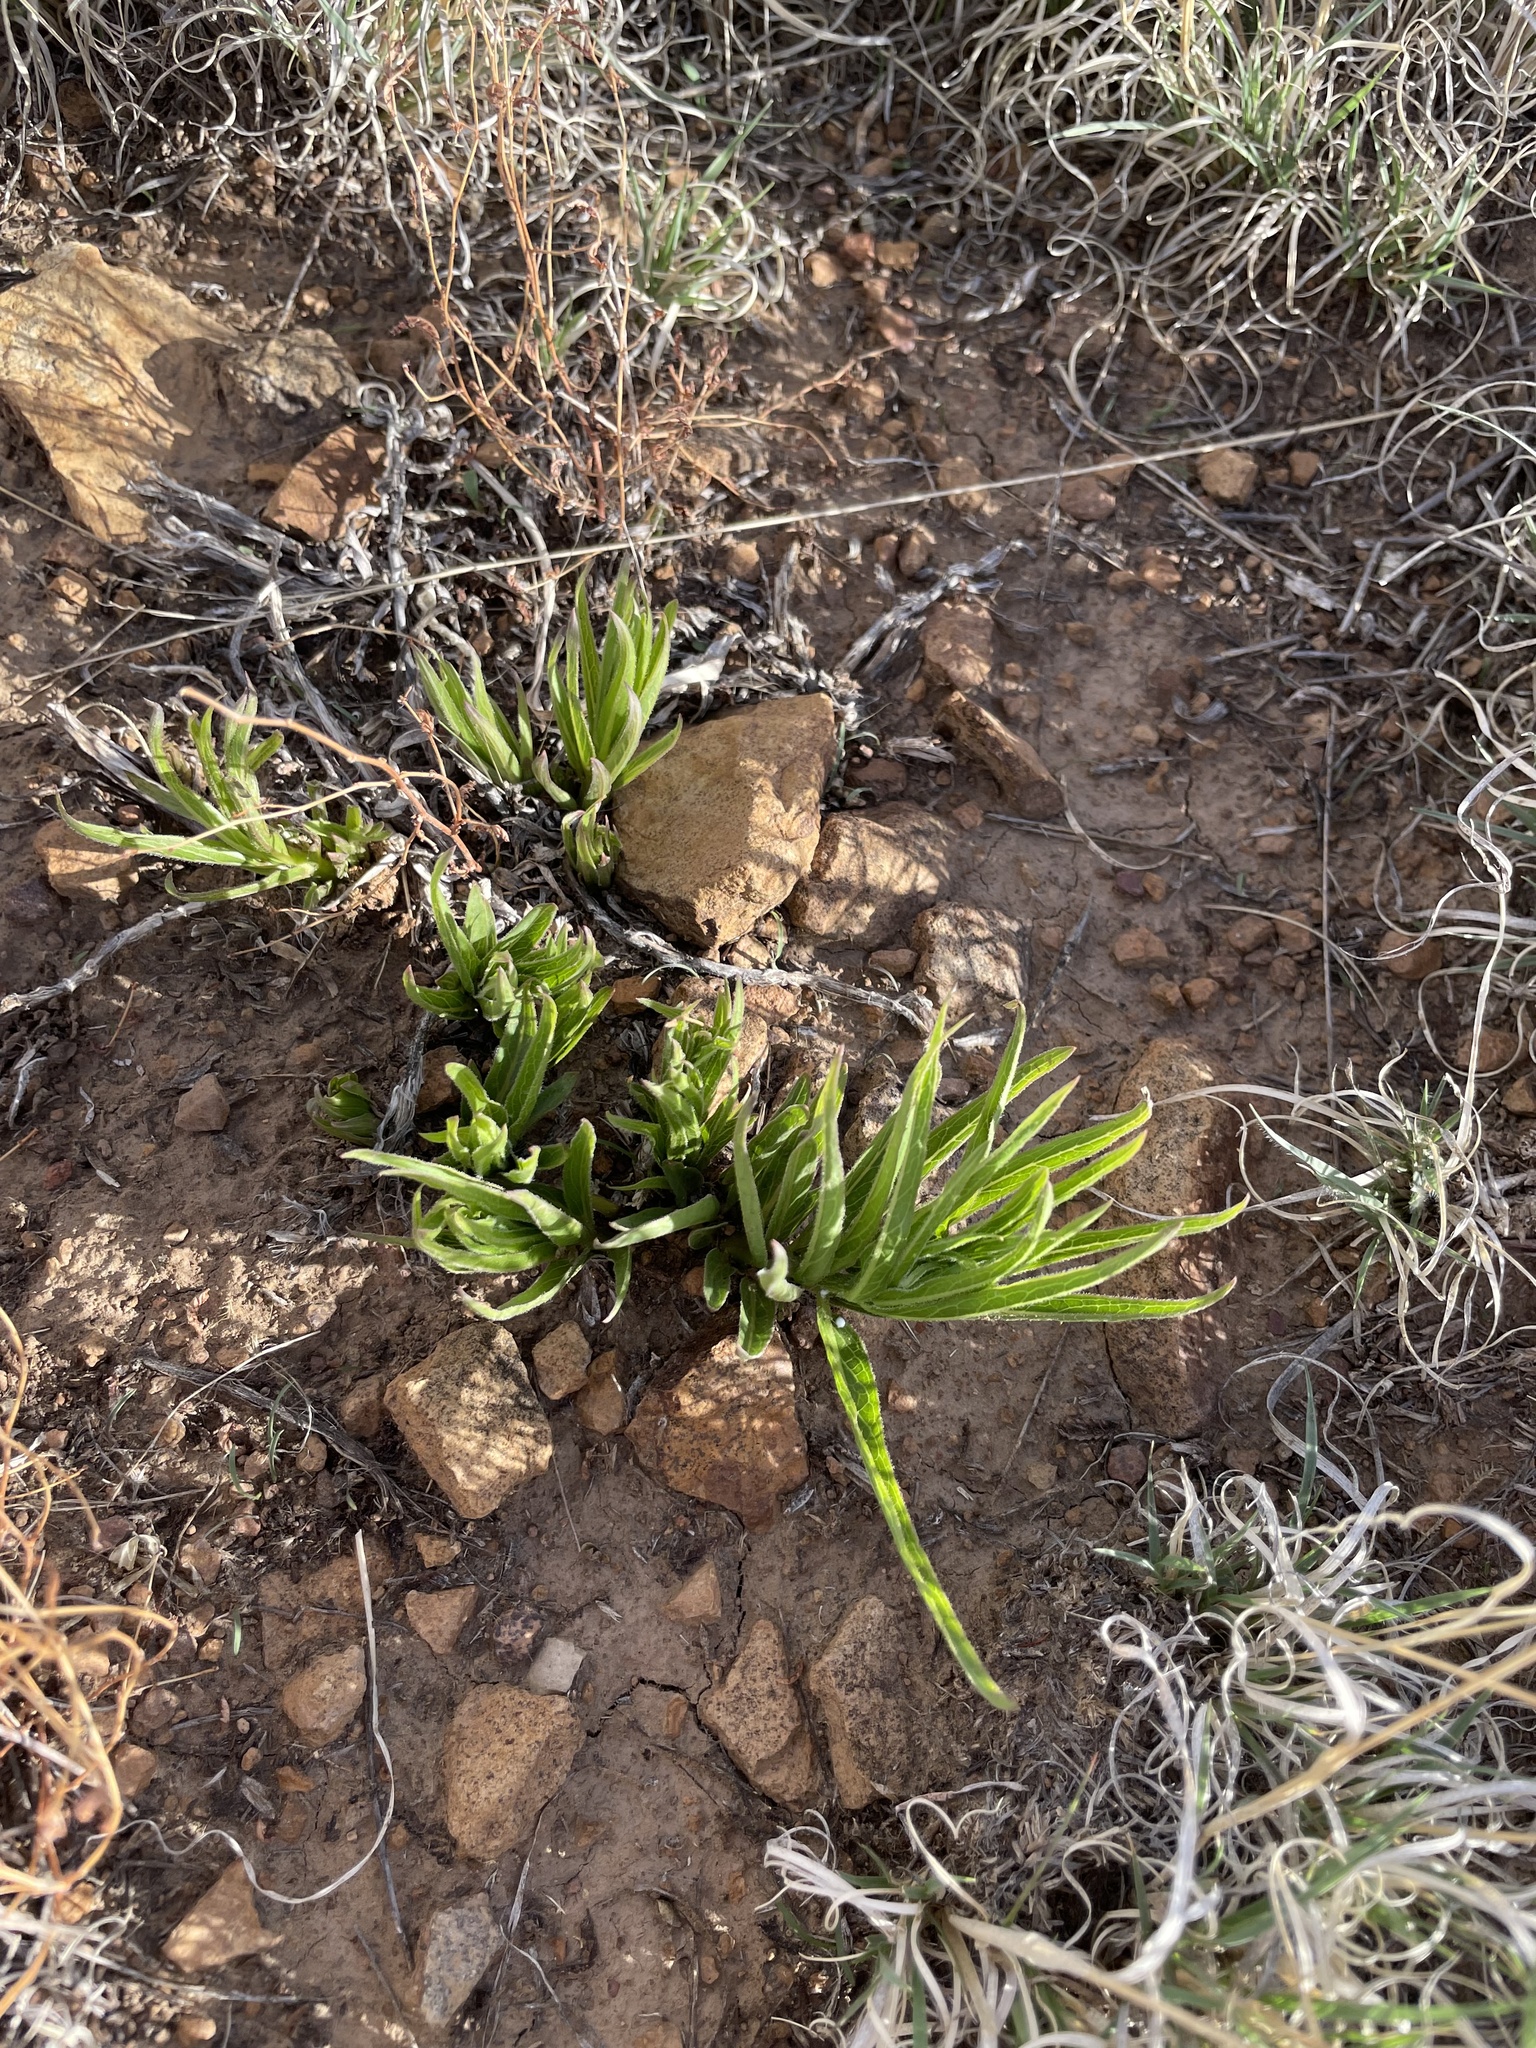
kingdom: Plantae
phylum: Tracheophyta
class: Magnoliopsida
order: Gentianales
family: Apocynaceae
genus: Asclepias
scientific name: Asclepias asperula
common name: Antelope horns
